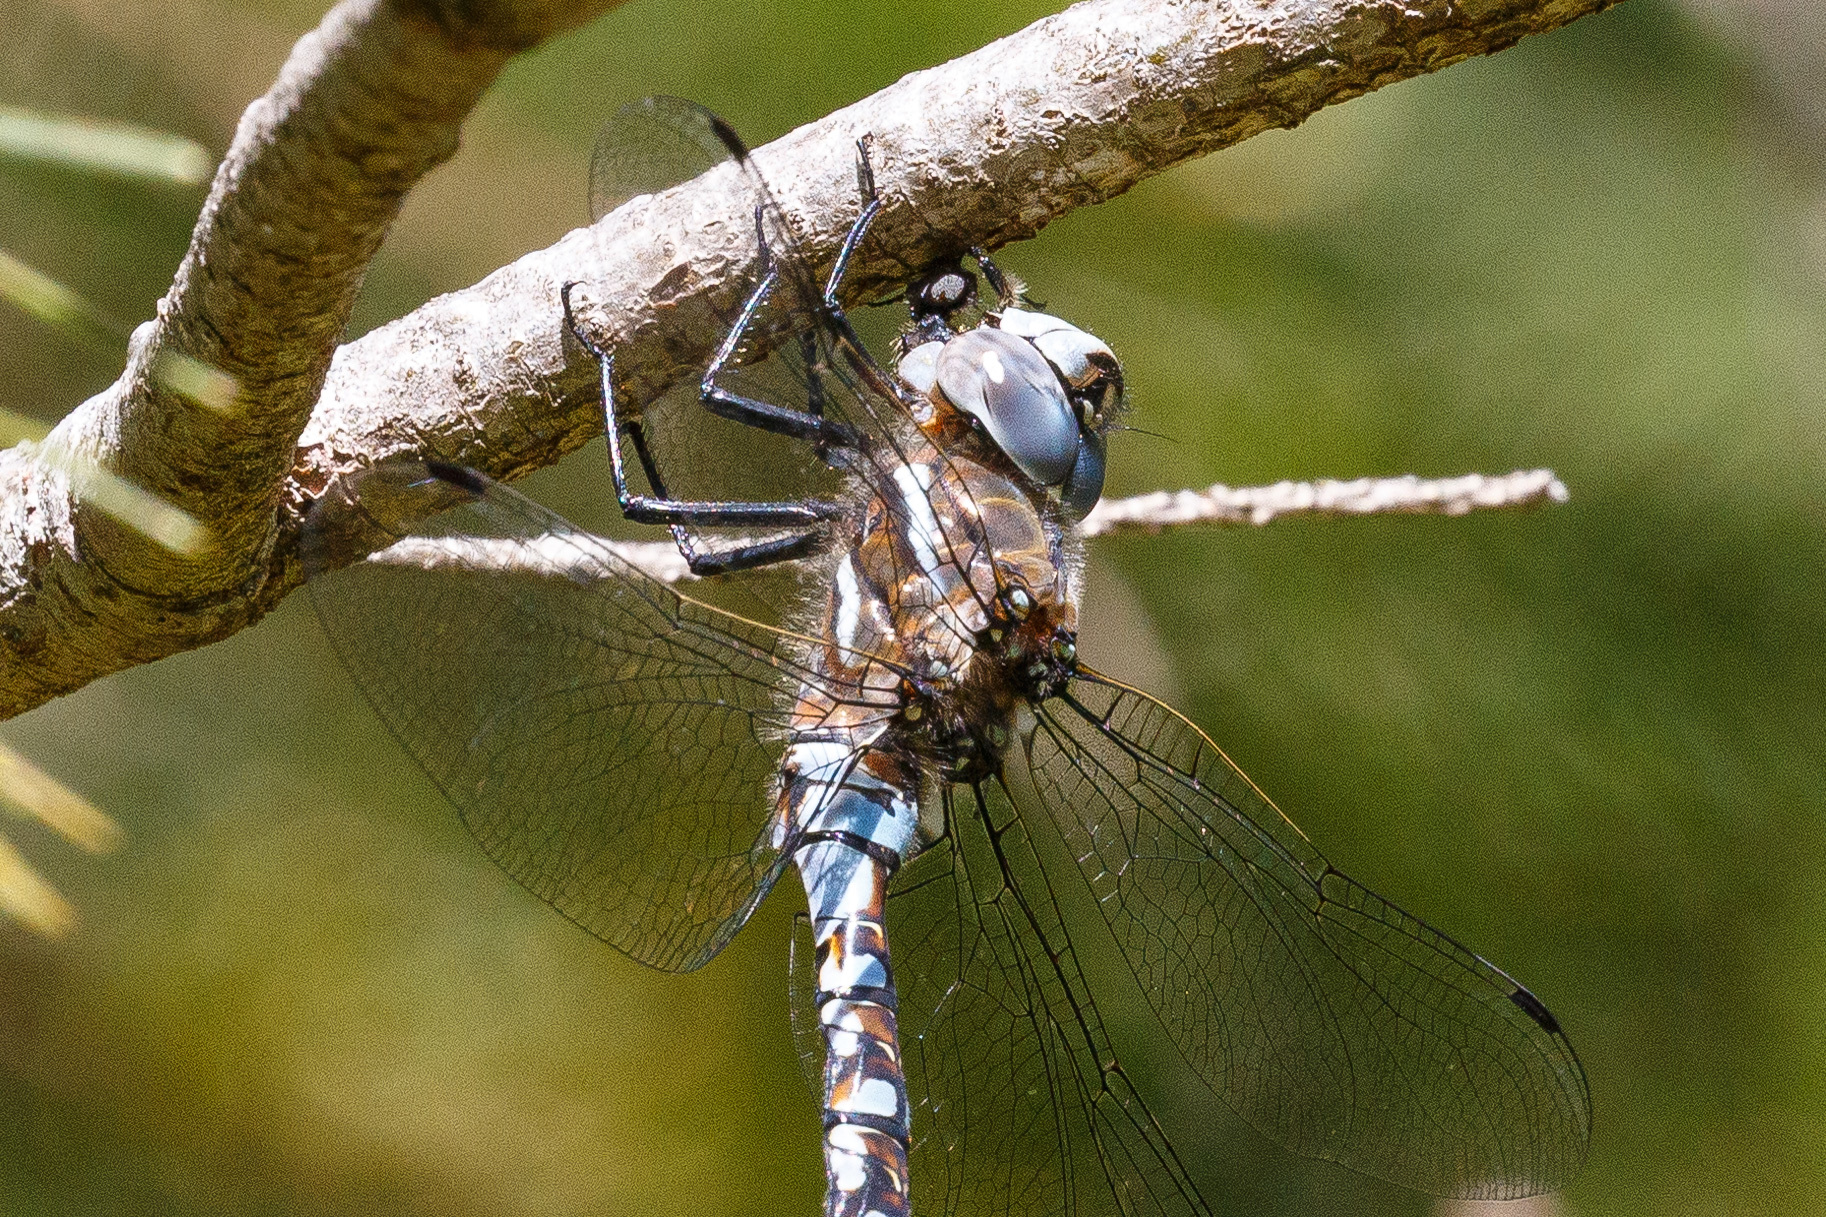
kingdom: Animalia
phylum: Arthropoda
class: Insecta
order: Odonata
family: Aeshnidae
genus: Rhionaeschna
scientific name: Rhionaeschna californica
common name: California darner
